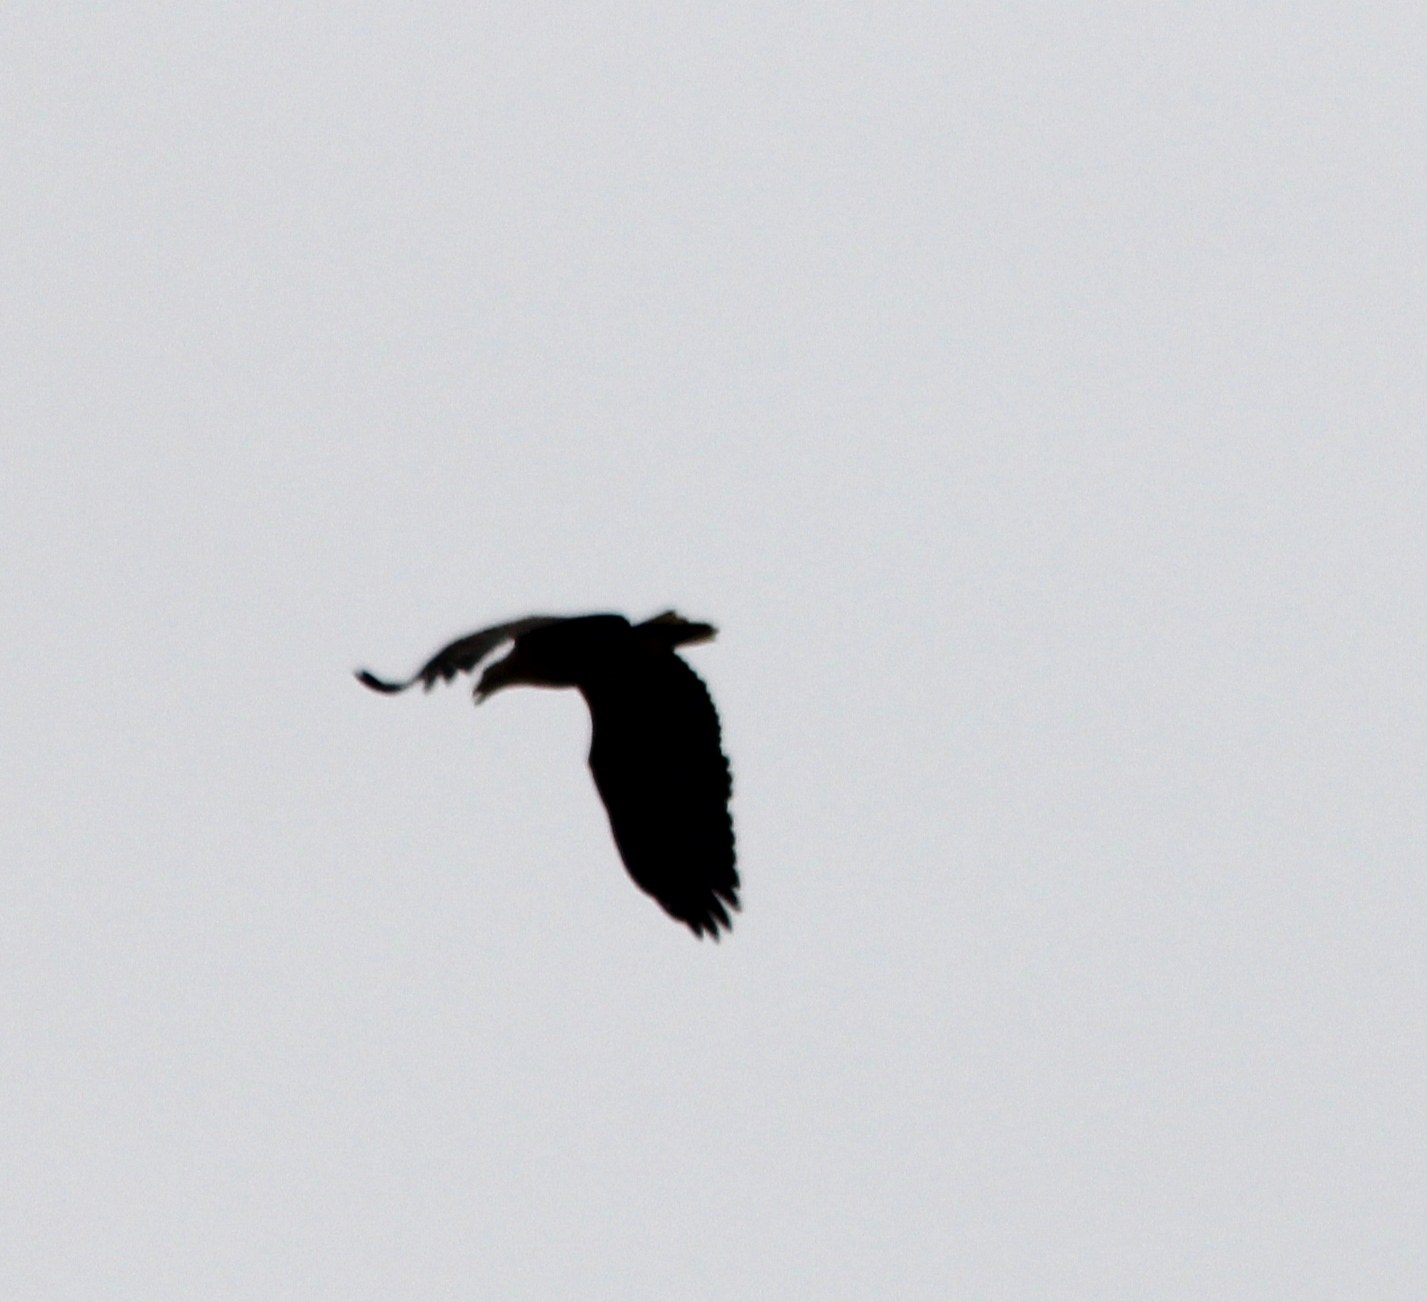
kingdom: Animalia
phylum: Chordata
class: Aves
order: Accipitriformes
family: Accipitridae
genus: Haliaeetus
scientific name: Haliaeetus albicilla
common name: White-tailed eagle
